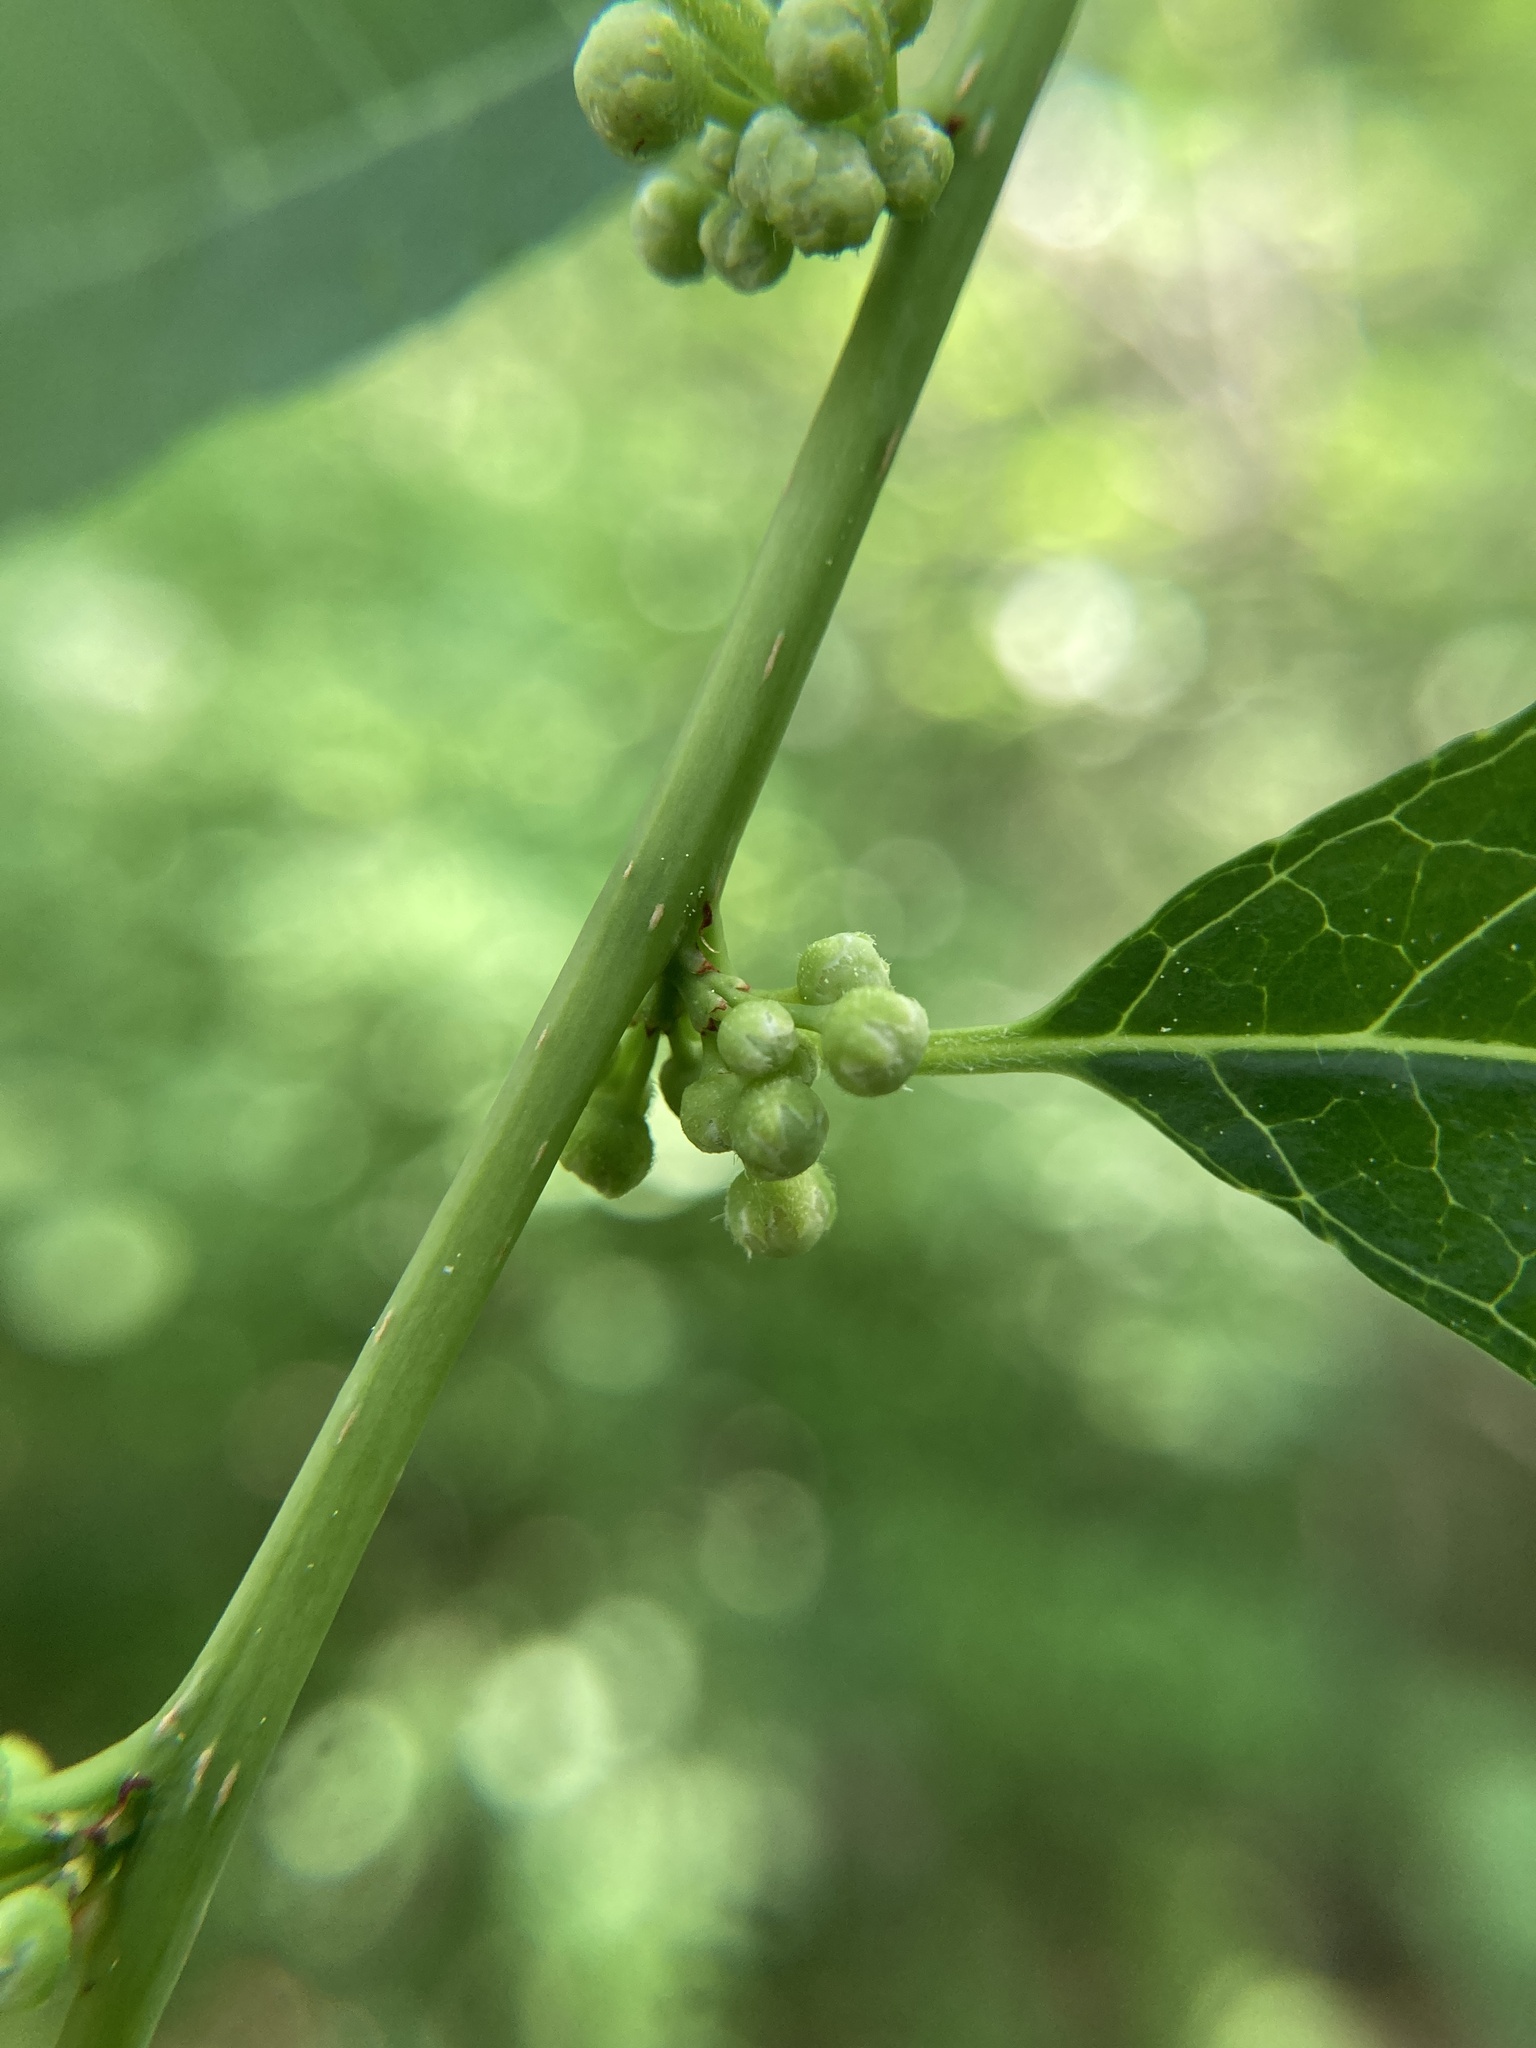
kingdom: Plantae
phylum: Tracheophyta
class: Magnoliopsida
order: Aquifoliales
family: Aquifoliaceae
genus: Ilex
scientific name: Ilex verticillata
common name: Virginia winterberry
